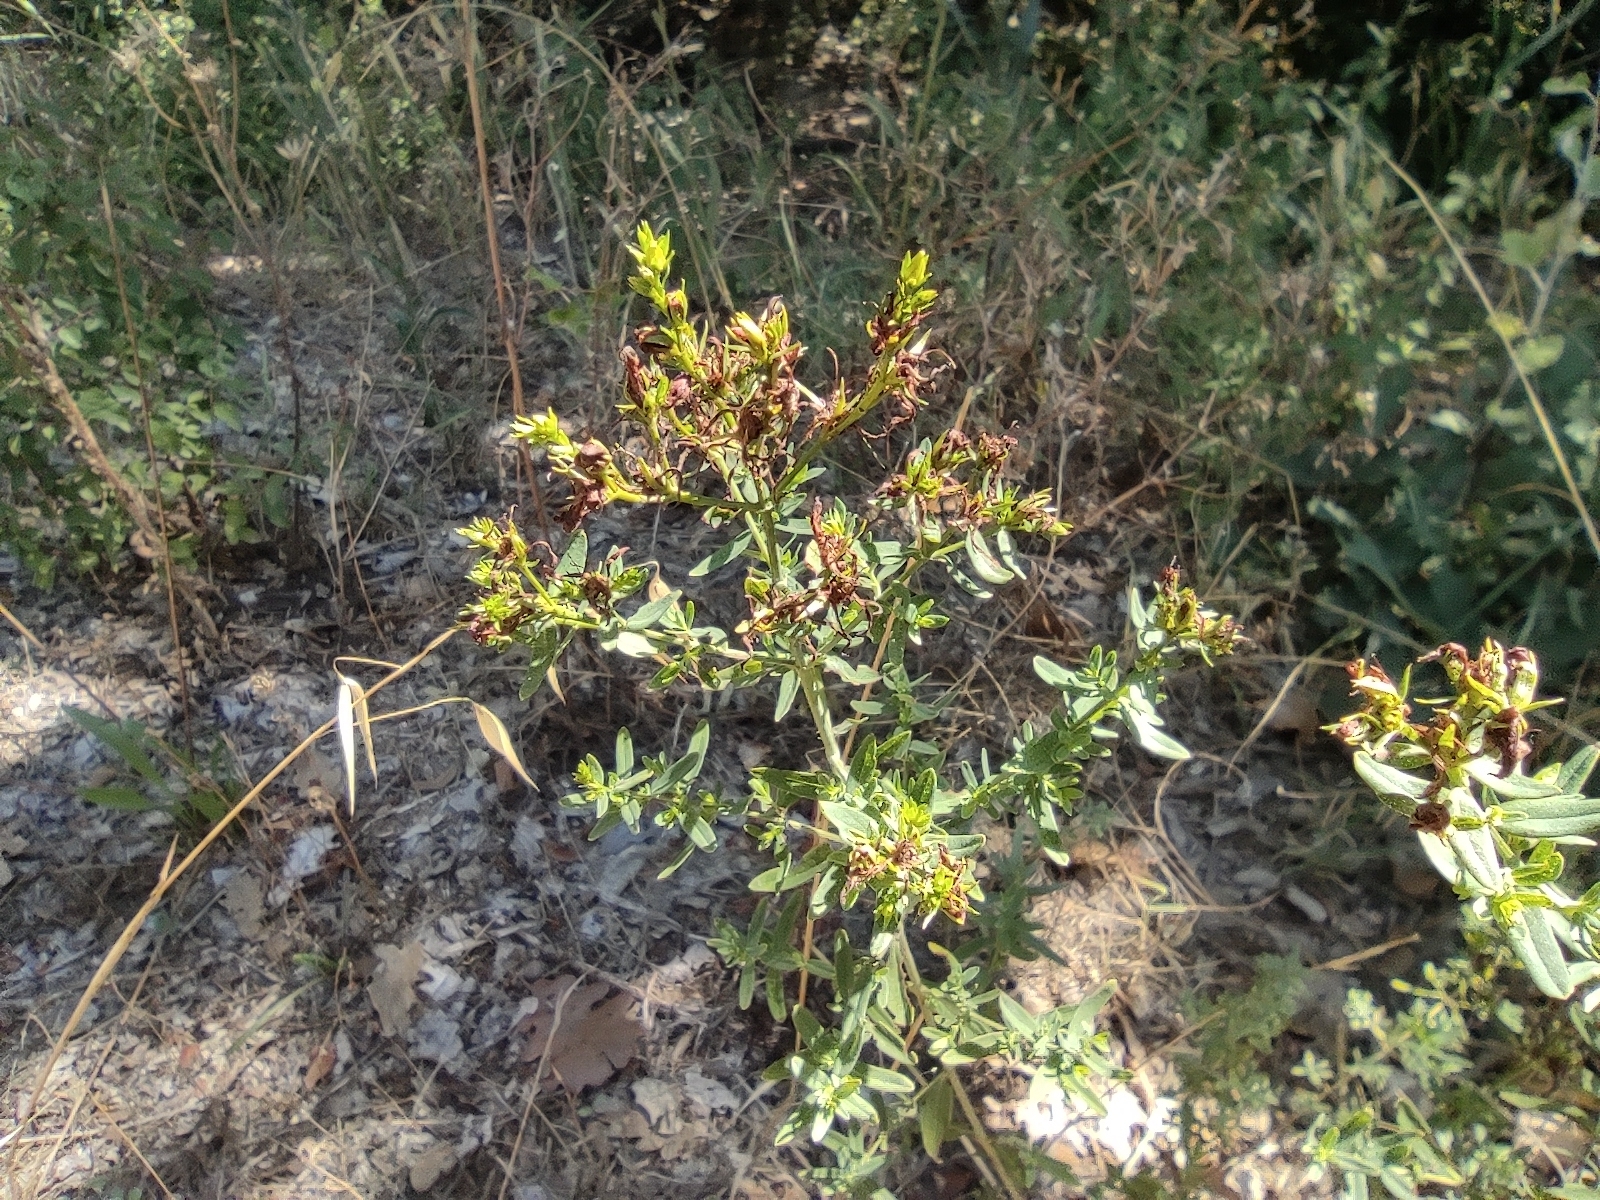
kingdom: Plantae
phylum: Tracheophyta
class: Magnoliopsida
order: Malpighiales
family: Hypericaceae
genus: Hypericum
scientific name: Hypericum perforatum
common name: Common st. johnswort
